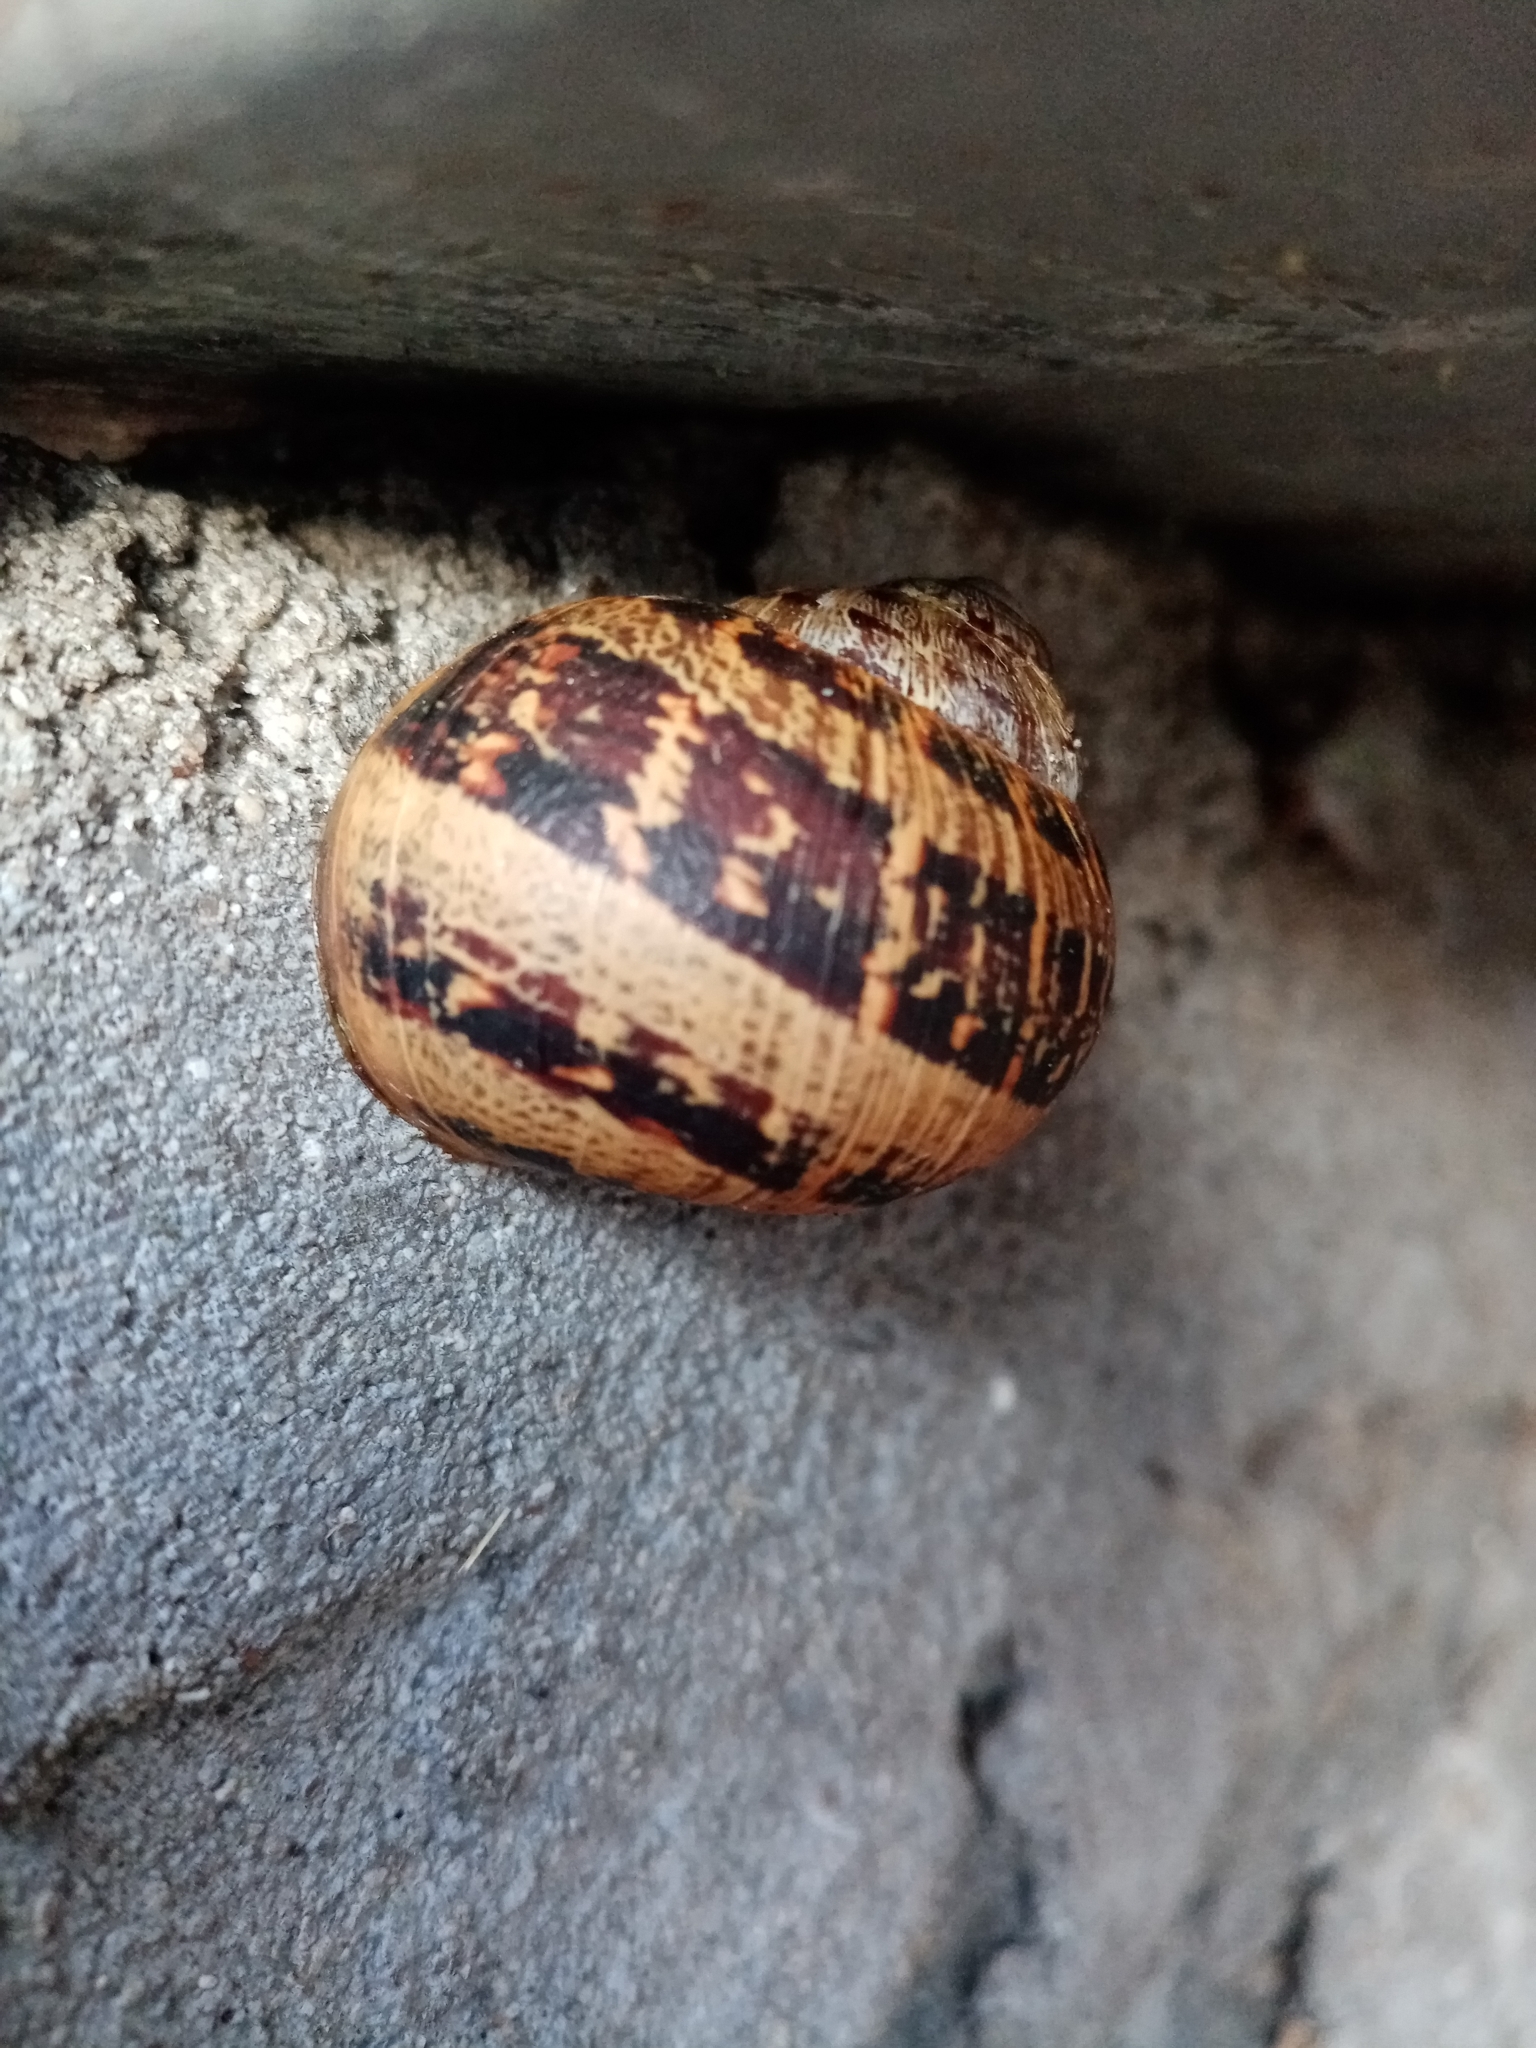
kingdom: Animalia
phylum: Mollusca
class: Gastropoda
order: Stylommatophora
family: Helicidae
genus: Cornu
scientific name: Cornu aspersum
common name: Brown garden snail
